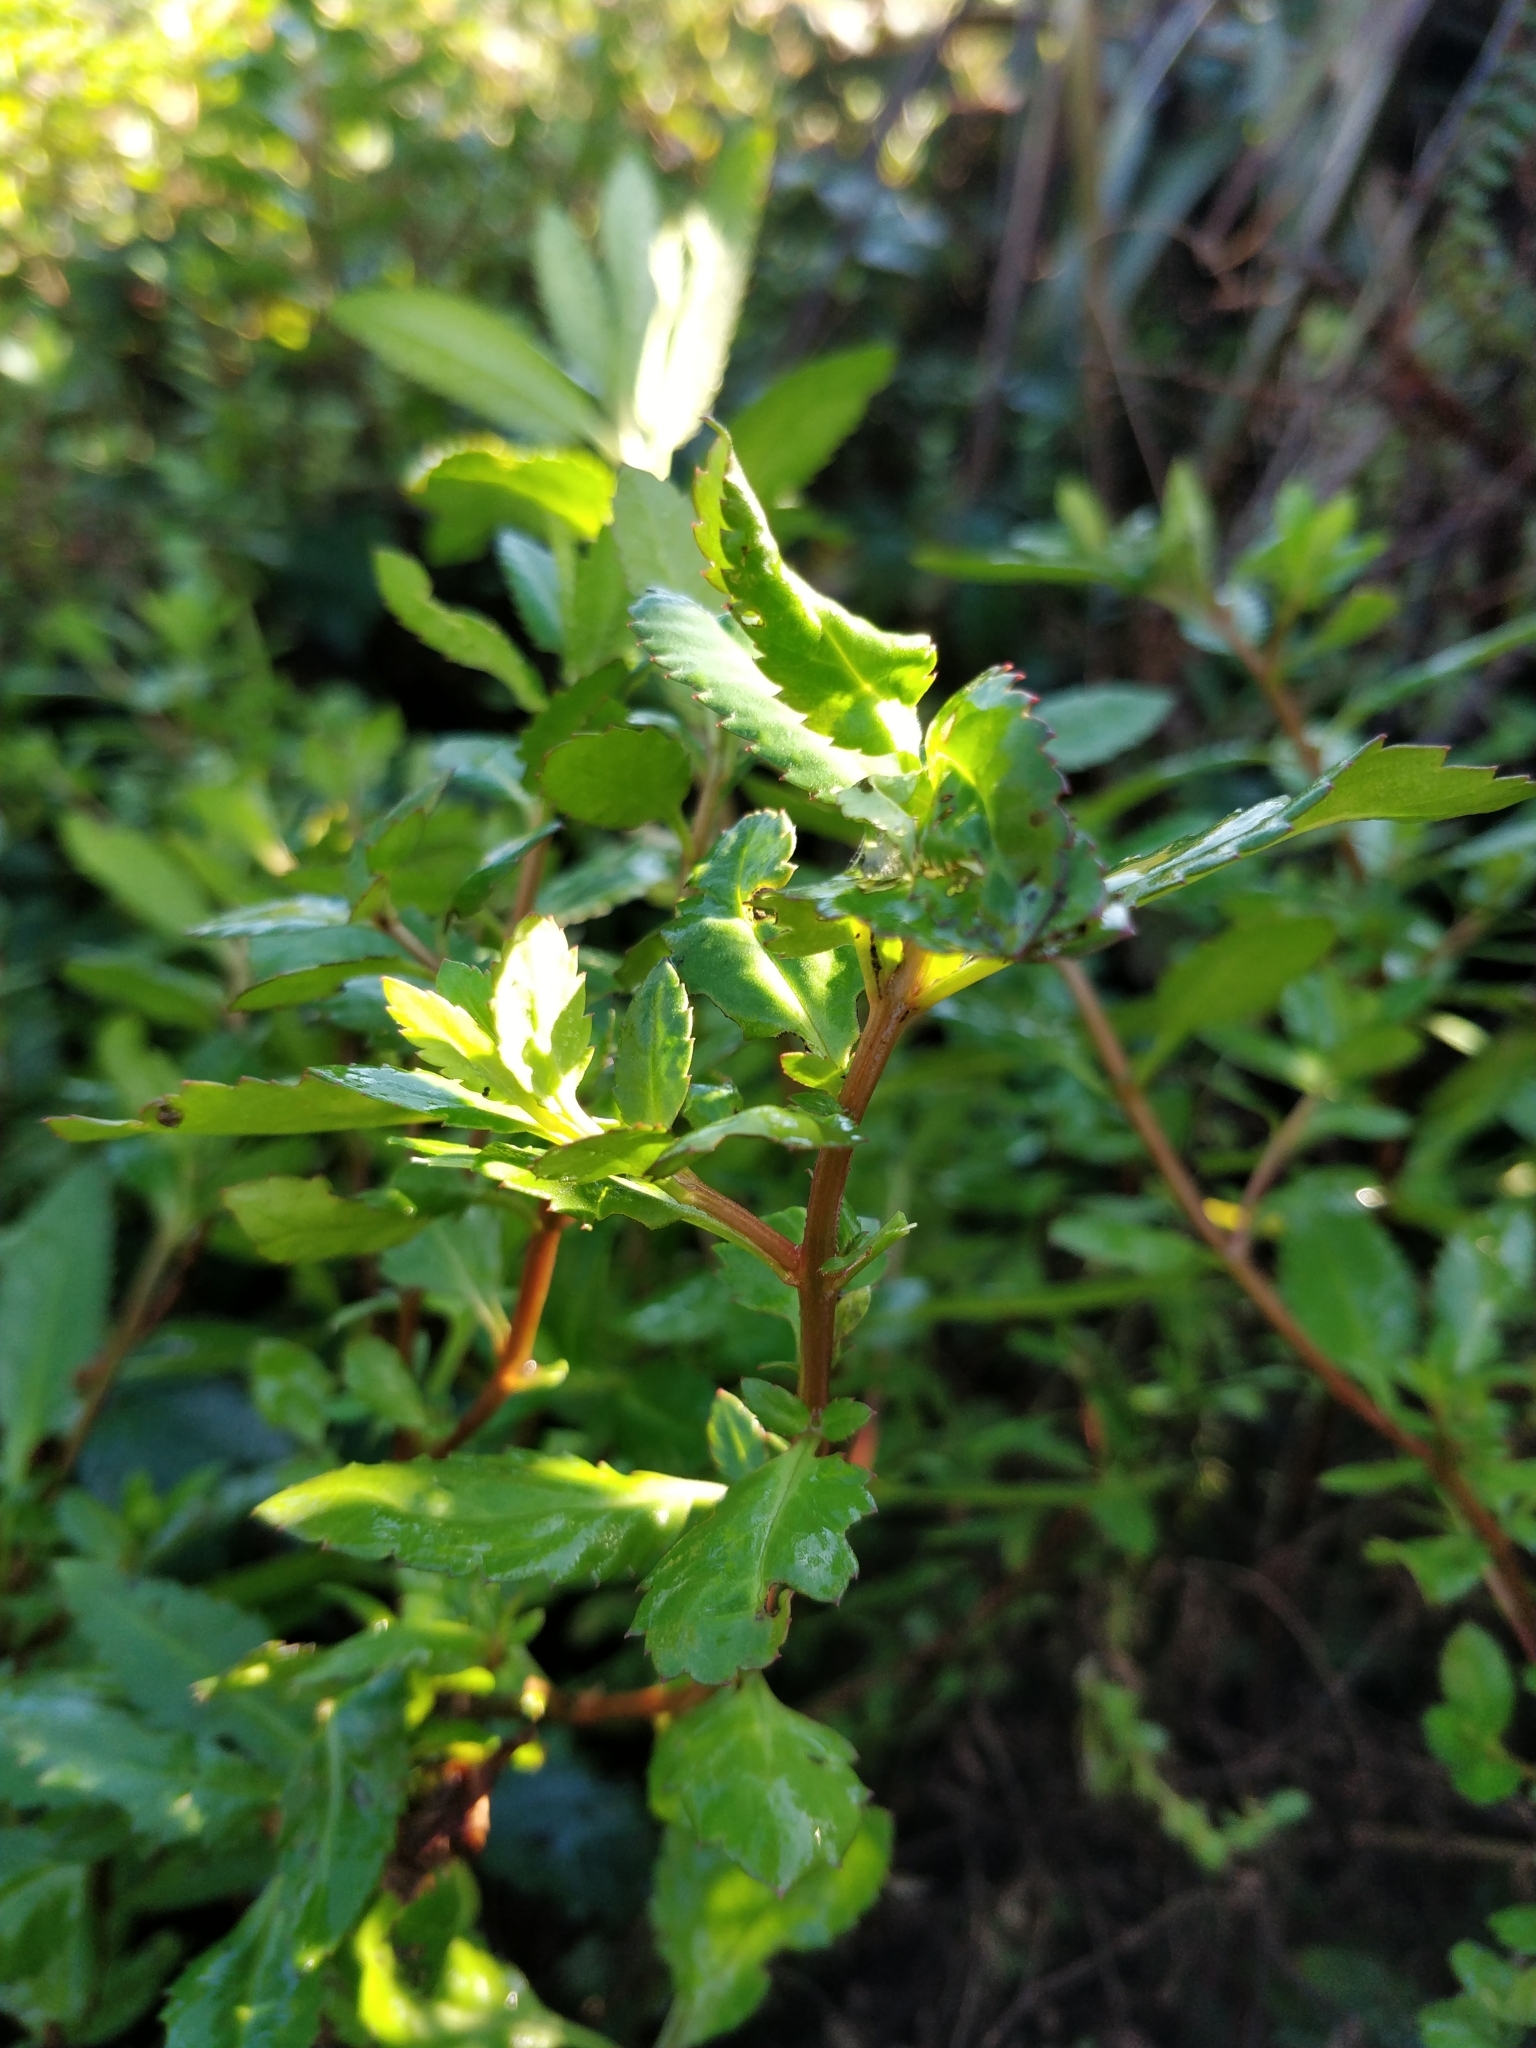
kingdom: Plantae
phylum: Tracheophyta
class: Magnoliopsida
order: Saxifragales
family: Haloragaceae
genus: Haloragis
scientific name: Haloragis erecta
